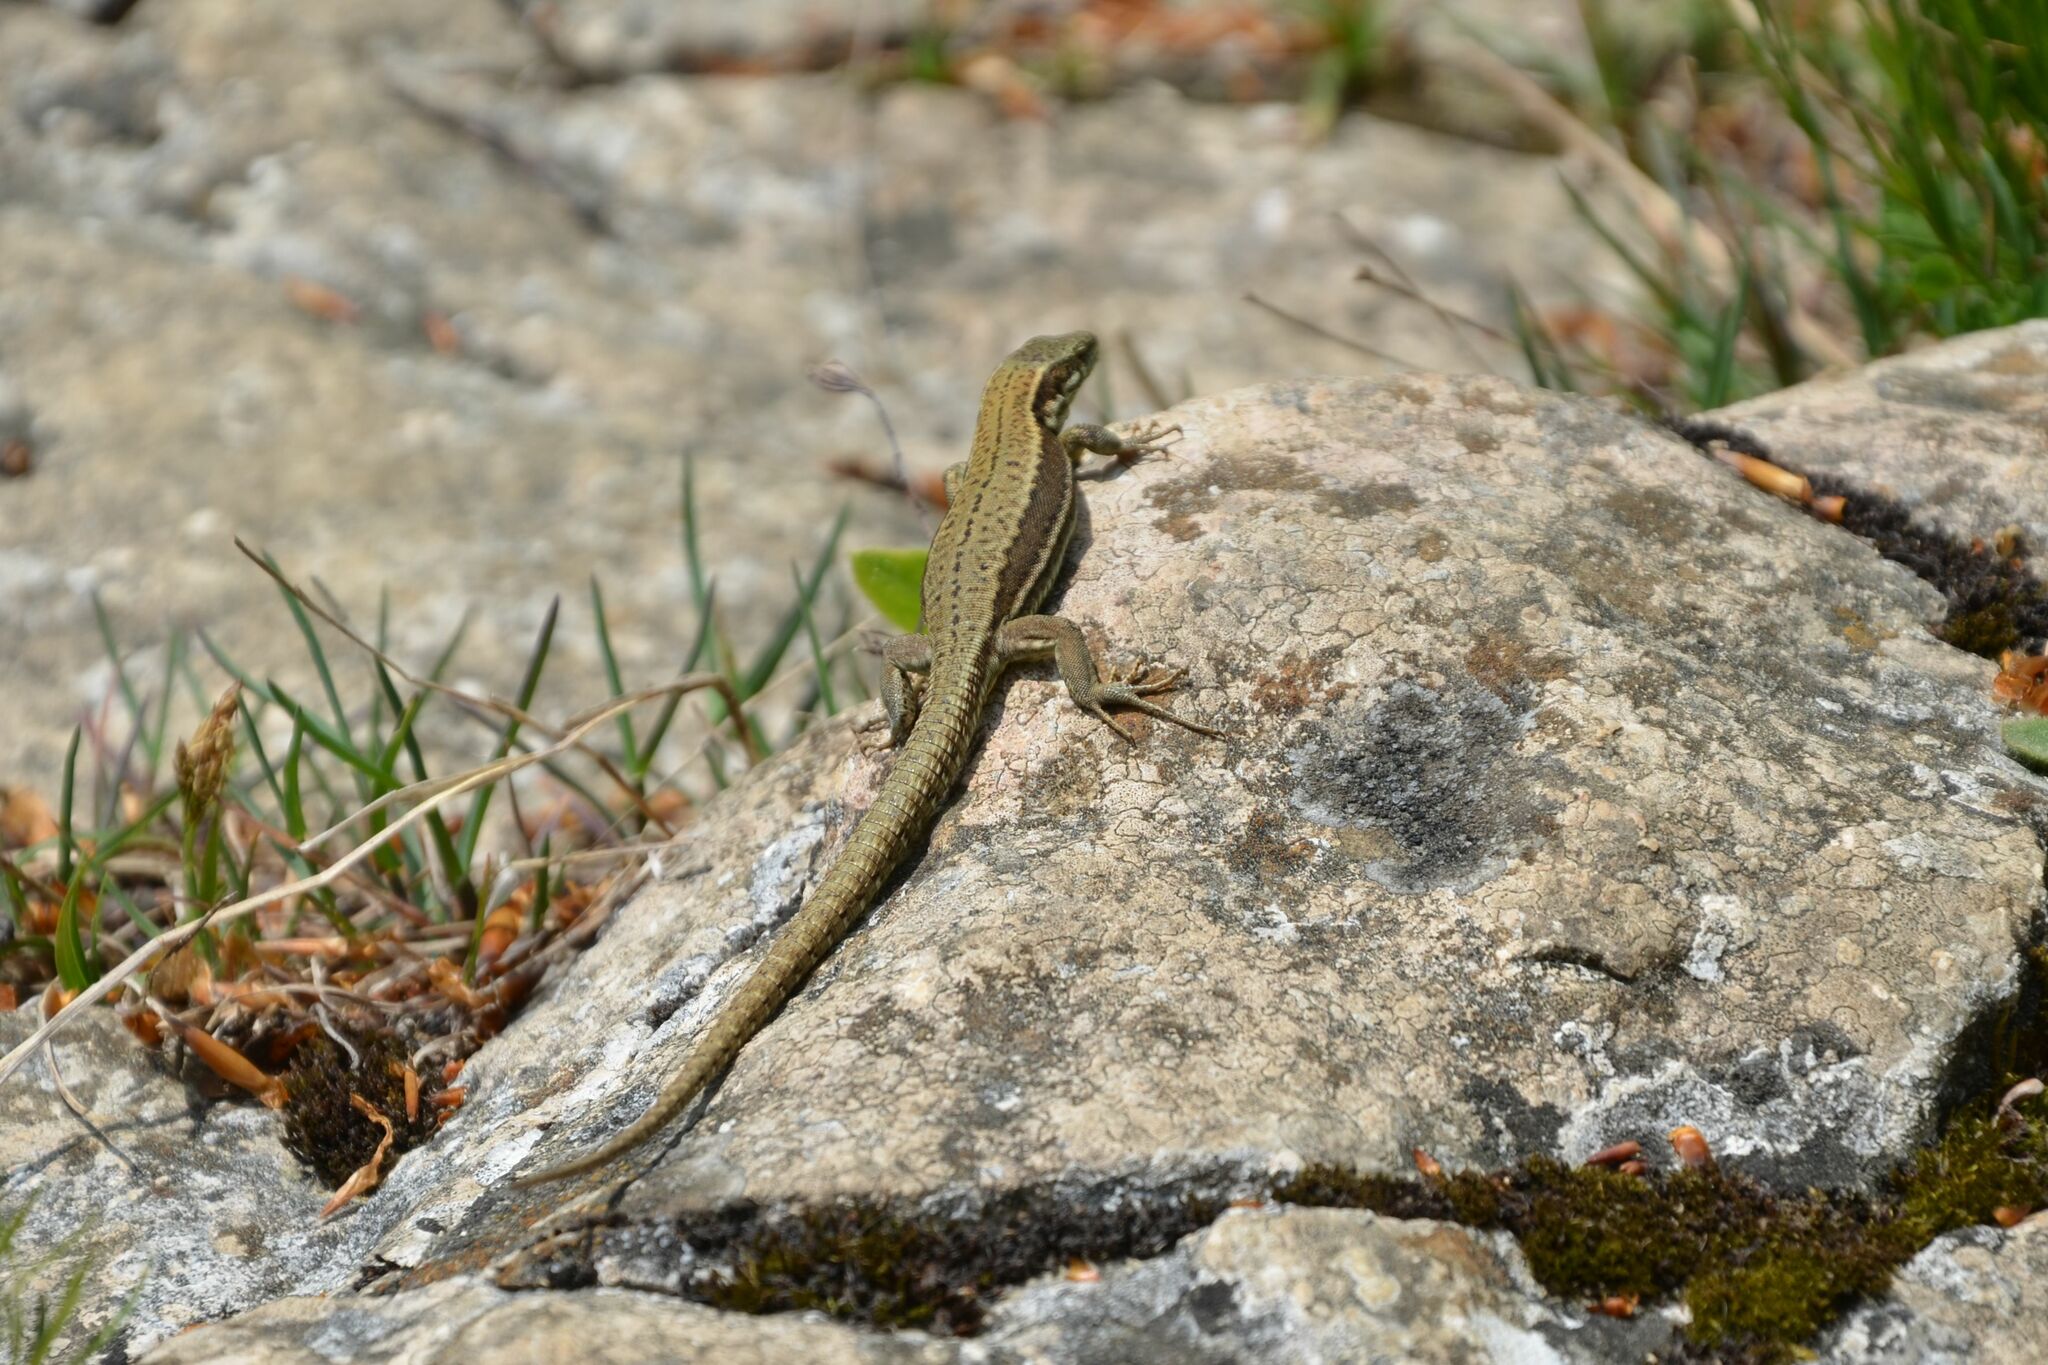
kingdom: Animalia
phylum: Chordata
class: Squamata
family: Lacertidae
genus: Podarcis
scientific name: Podarcis muralis
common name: Common wall lizard
